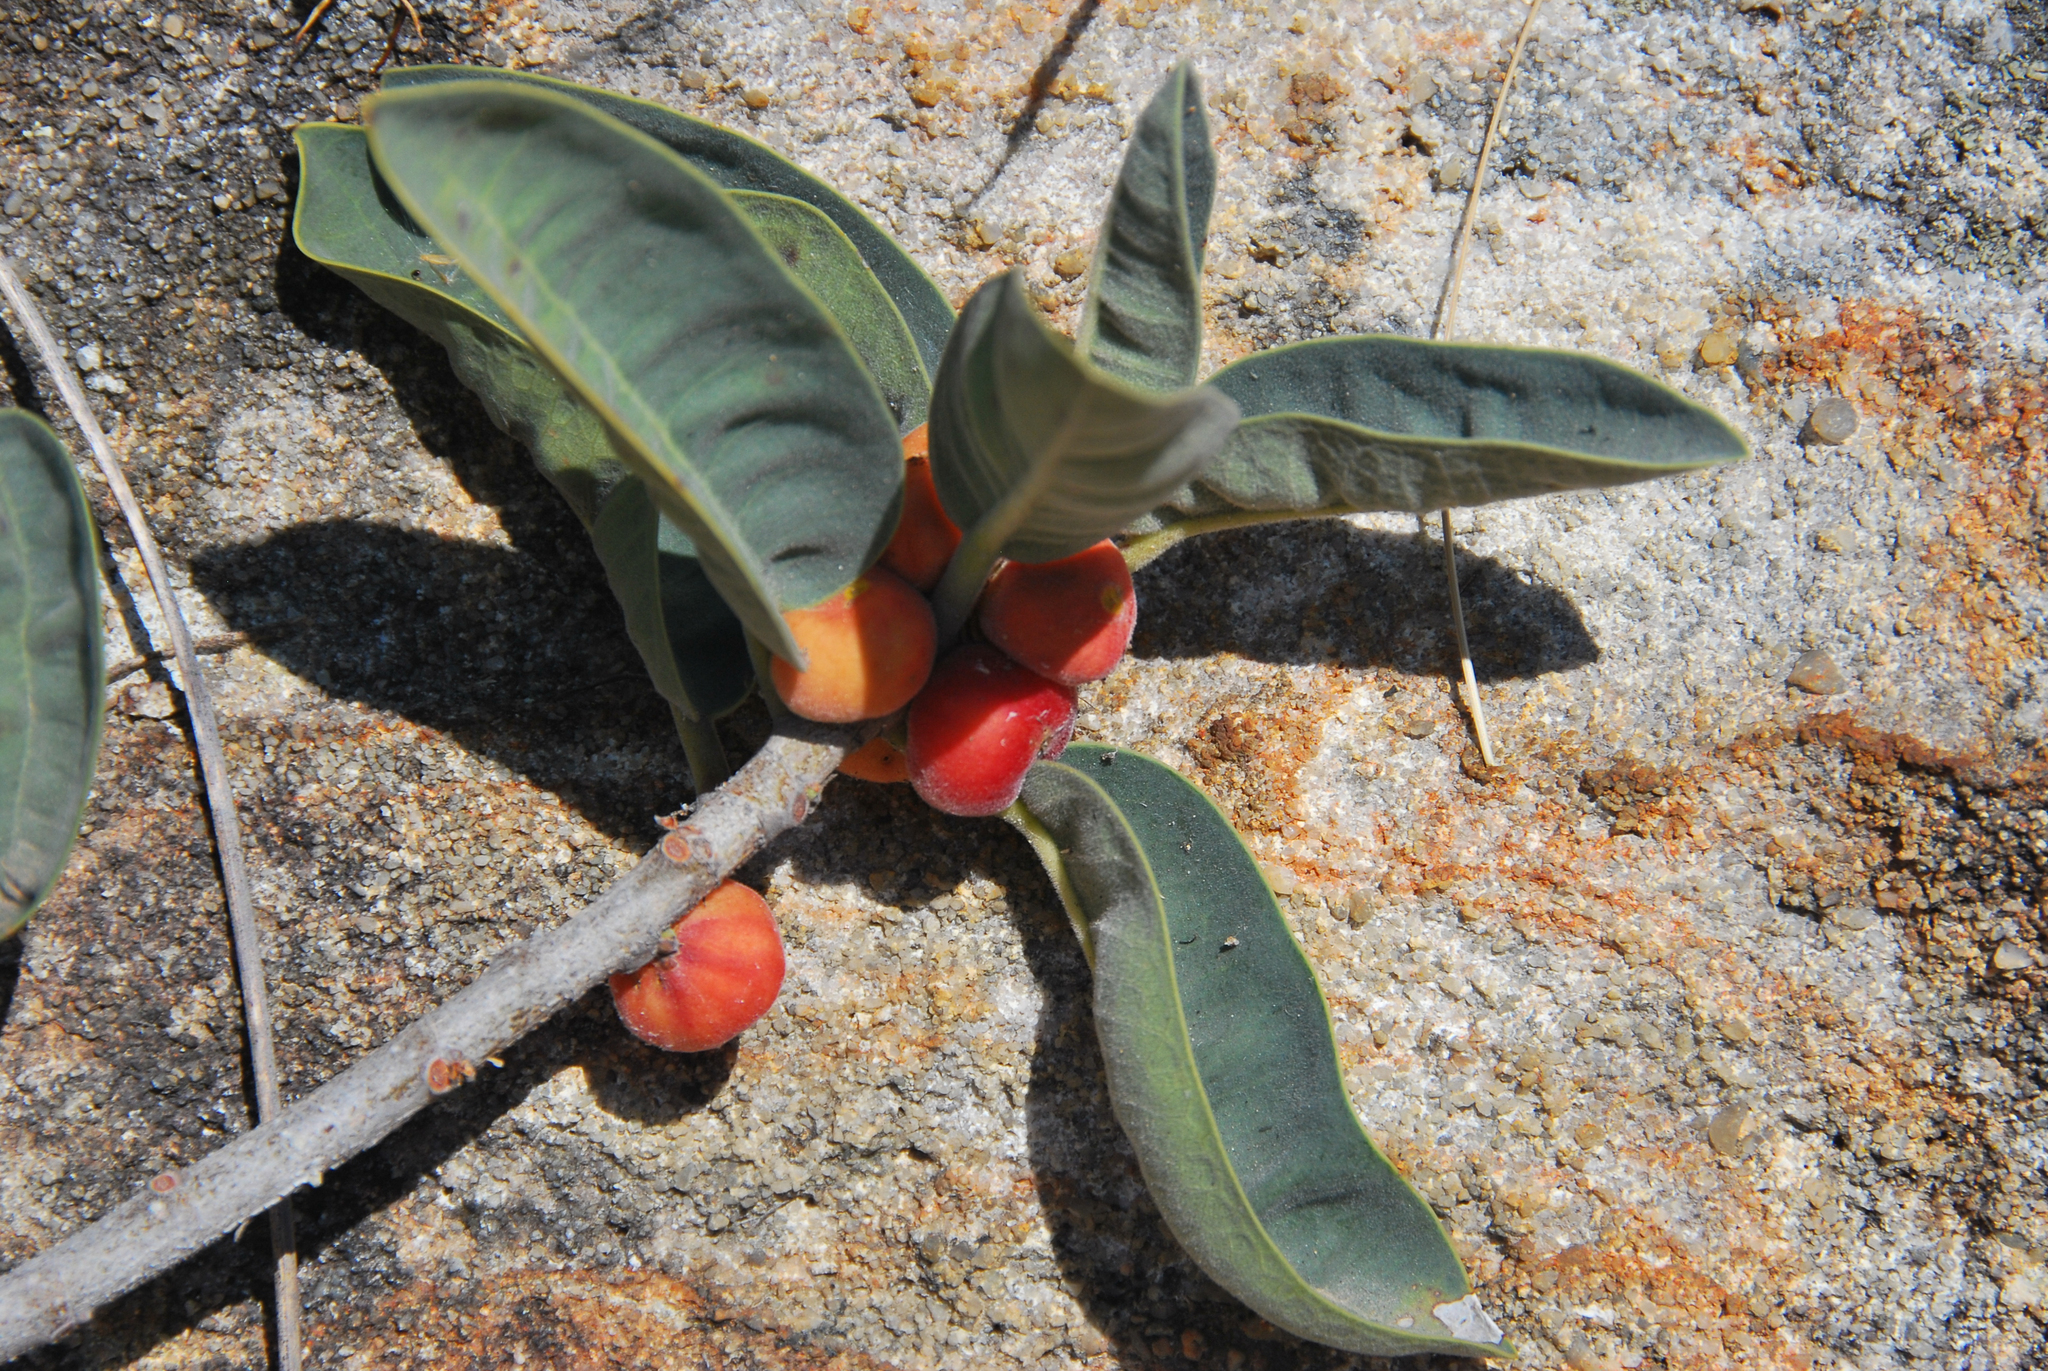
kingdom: Plantae
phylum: Tracheophyta
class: Magnoliopsida
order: Rosales
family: Moraceae
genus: Ficus
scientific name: Ficus menabeensis
